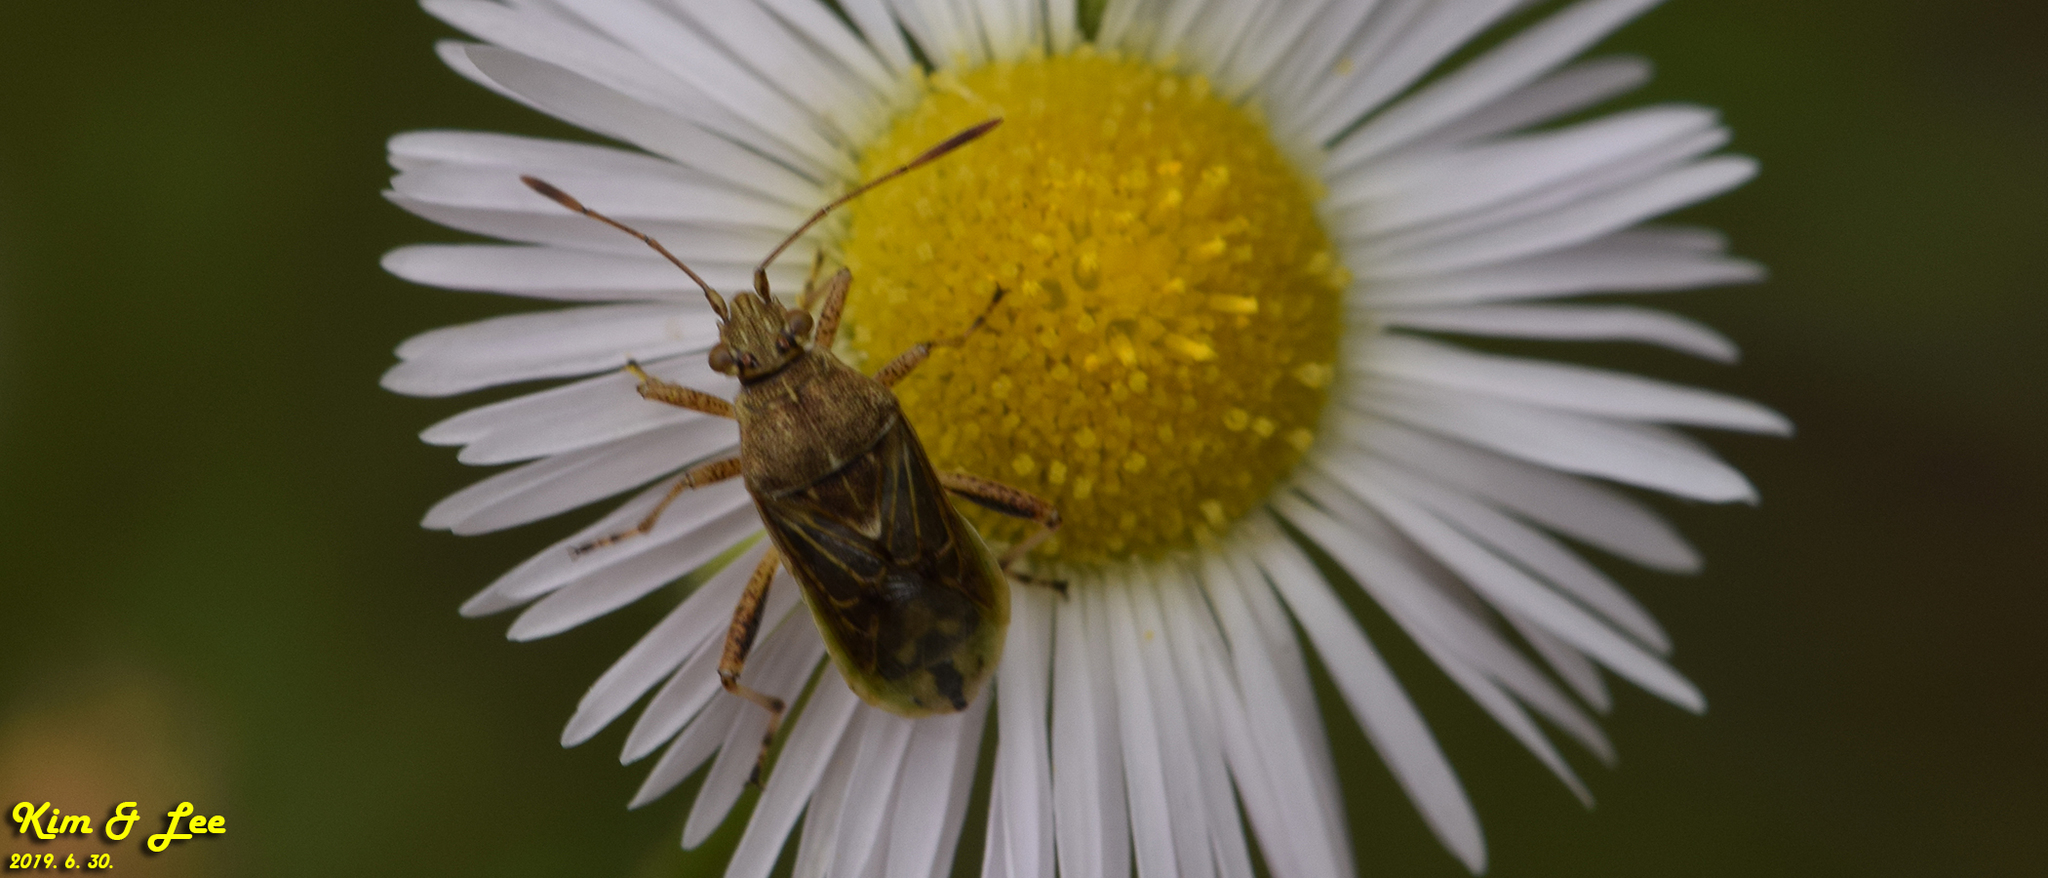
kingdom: Animalia
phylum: Arthropoda
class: Insecta
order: Hemiptera
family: Rhopalidae
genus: Stictopleurus
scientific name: Stictopleurus minutus
